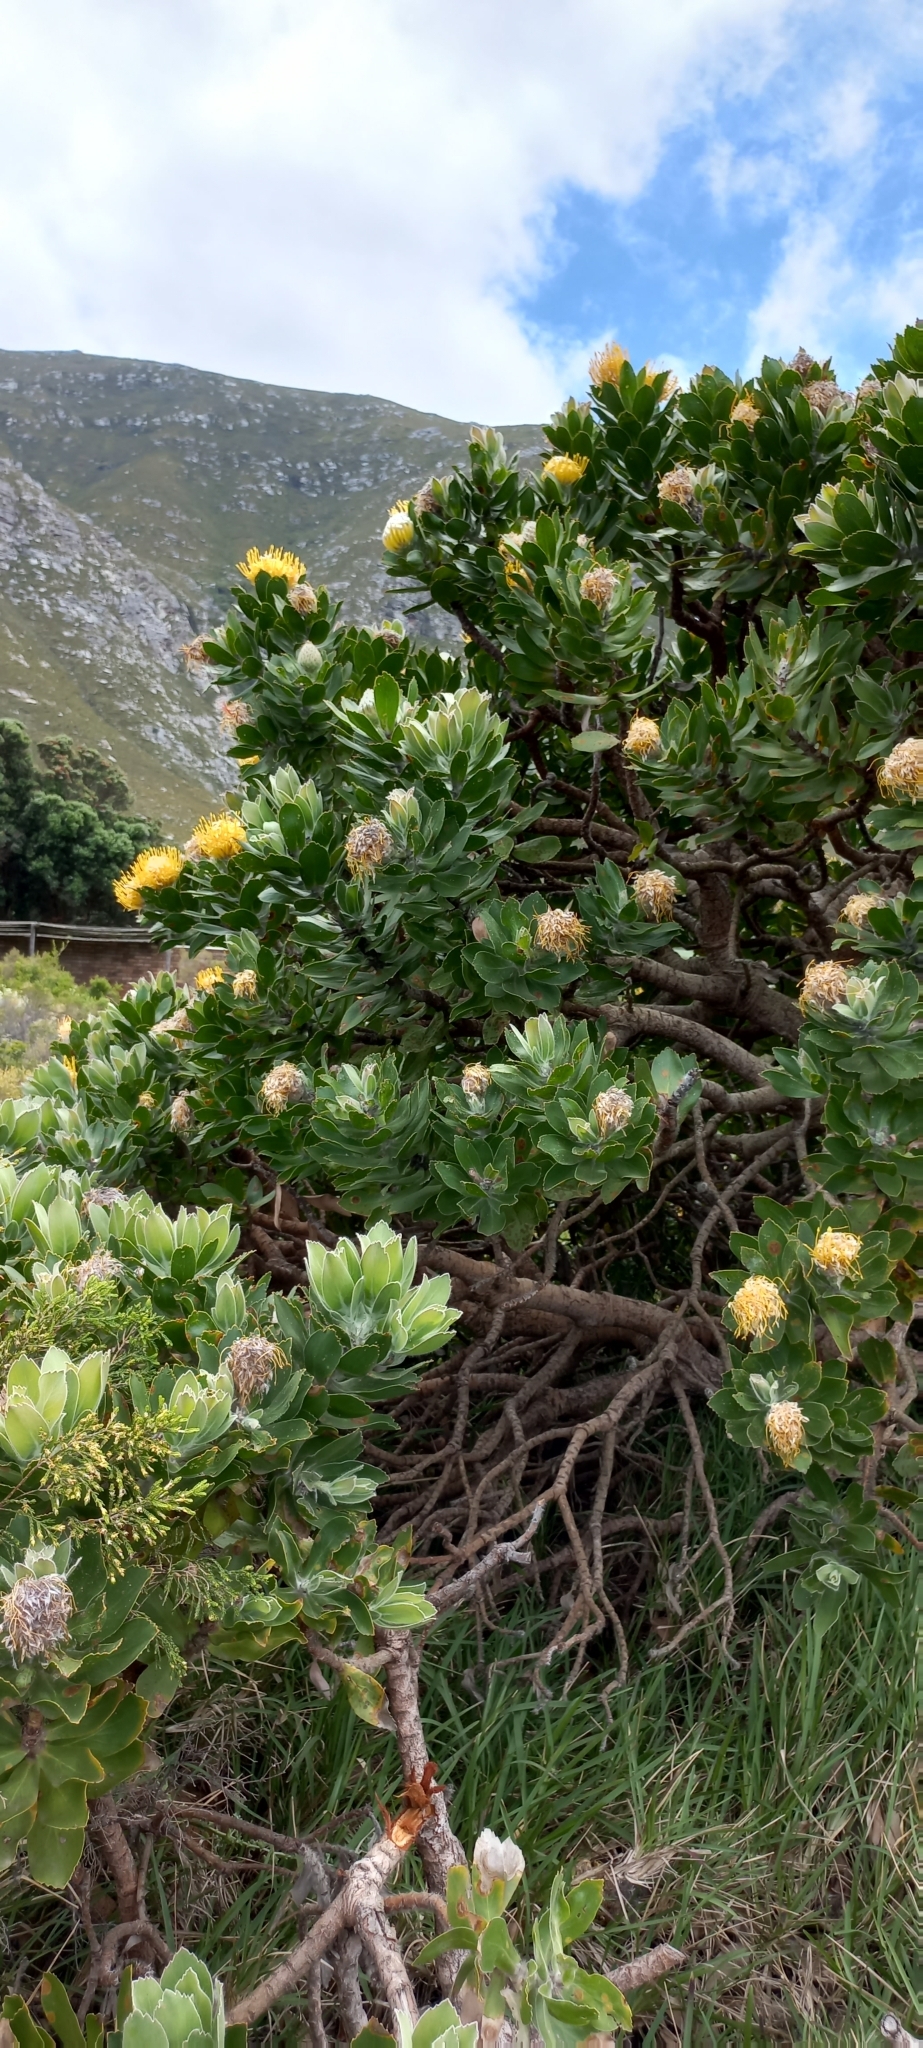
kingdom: Plantae
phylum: Tracheophyta
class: Magnoliopsida
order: Proteales
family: Proteaceae
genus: Leucospermum
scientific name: Leucospermum conocarpodendron
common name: Tree pincushion
